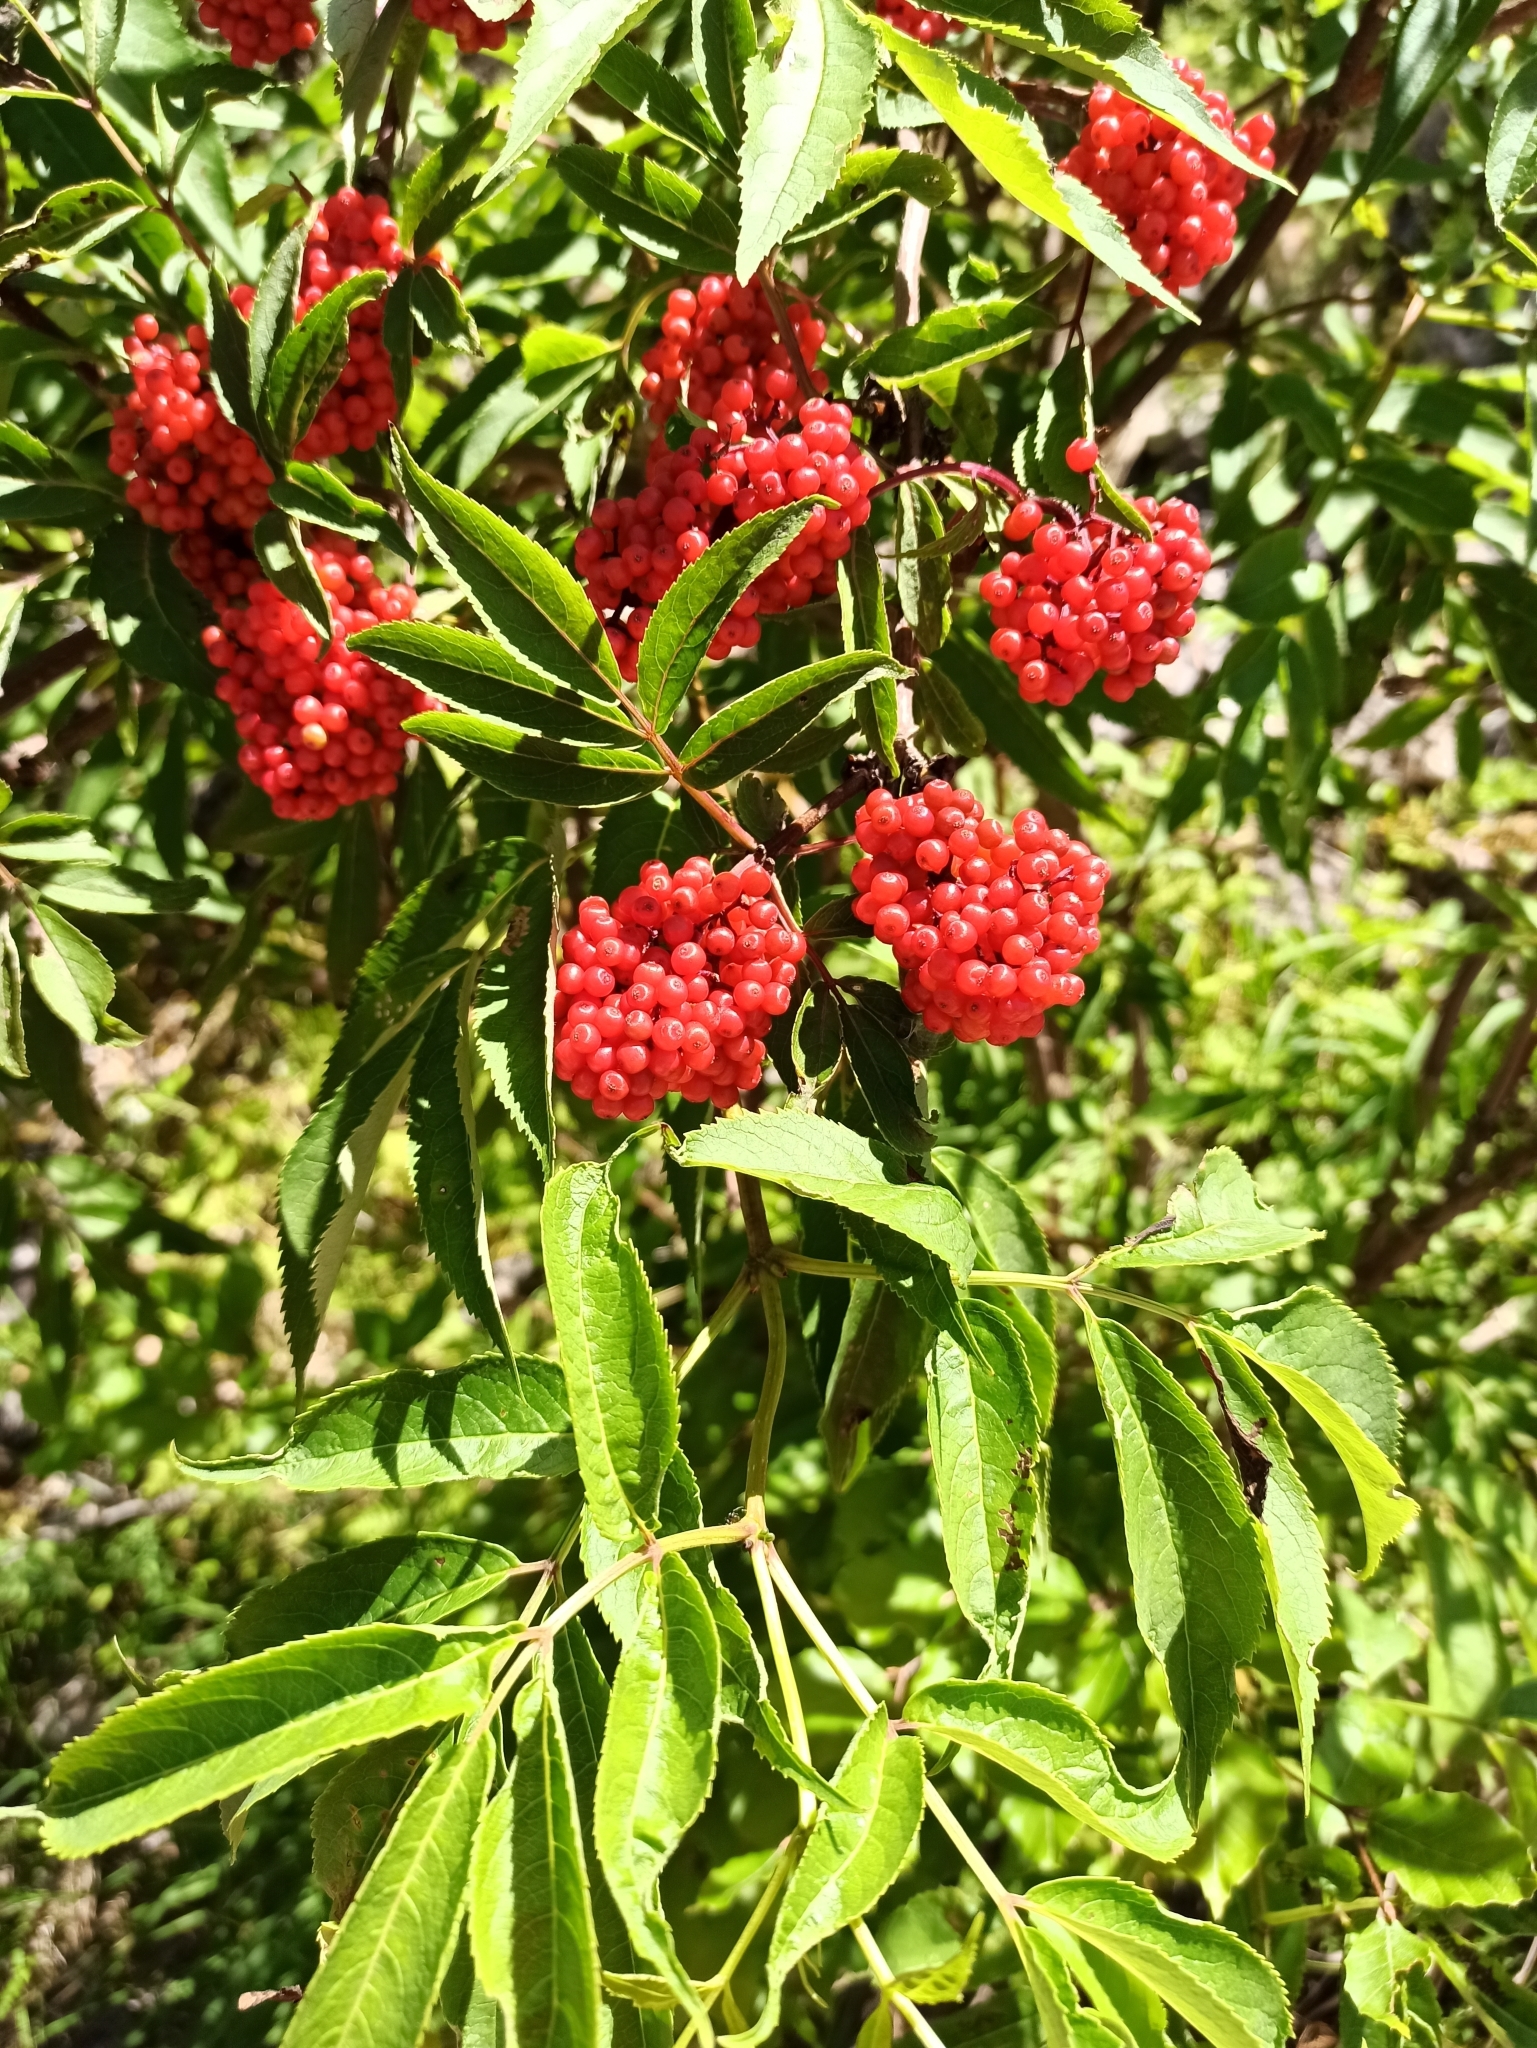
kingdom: Plantae
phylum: Tracheophyta
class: Magnoliopsida
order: Dipsacales
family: Viburnaceae
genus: Sambucus
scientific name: Sambucus racemosa
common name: Red-berried elder
